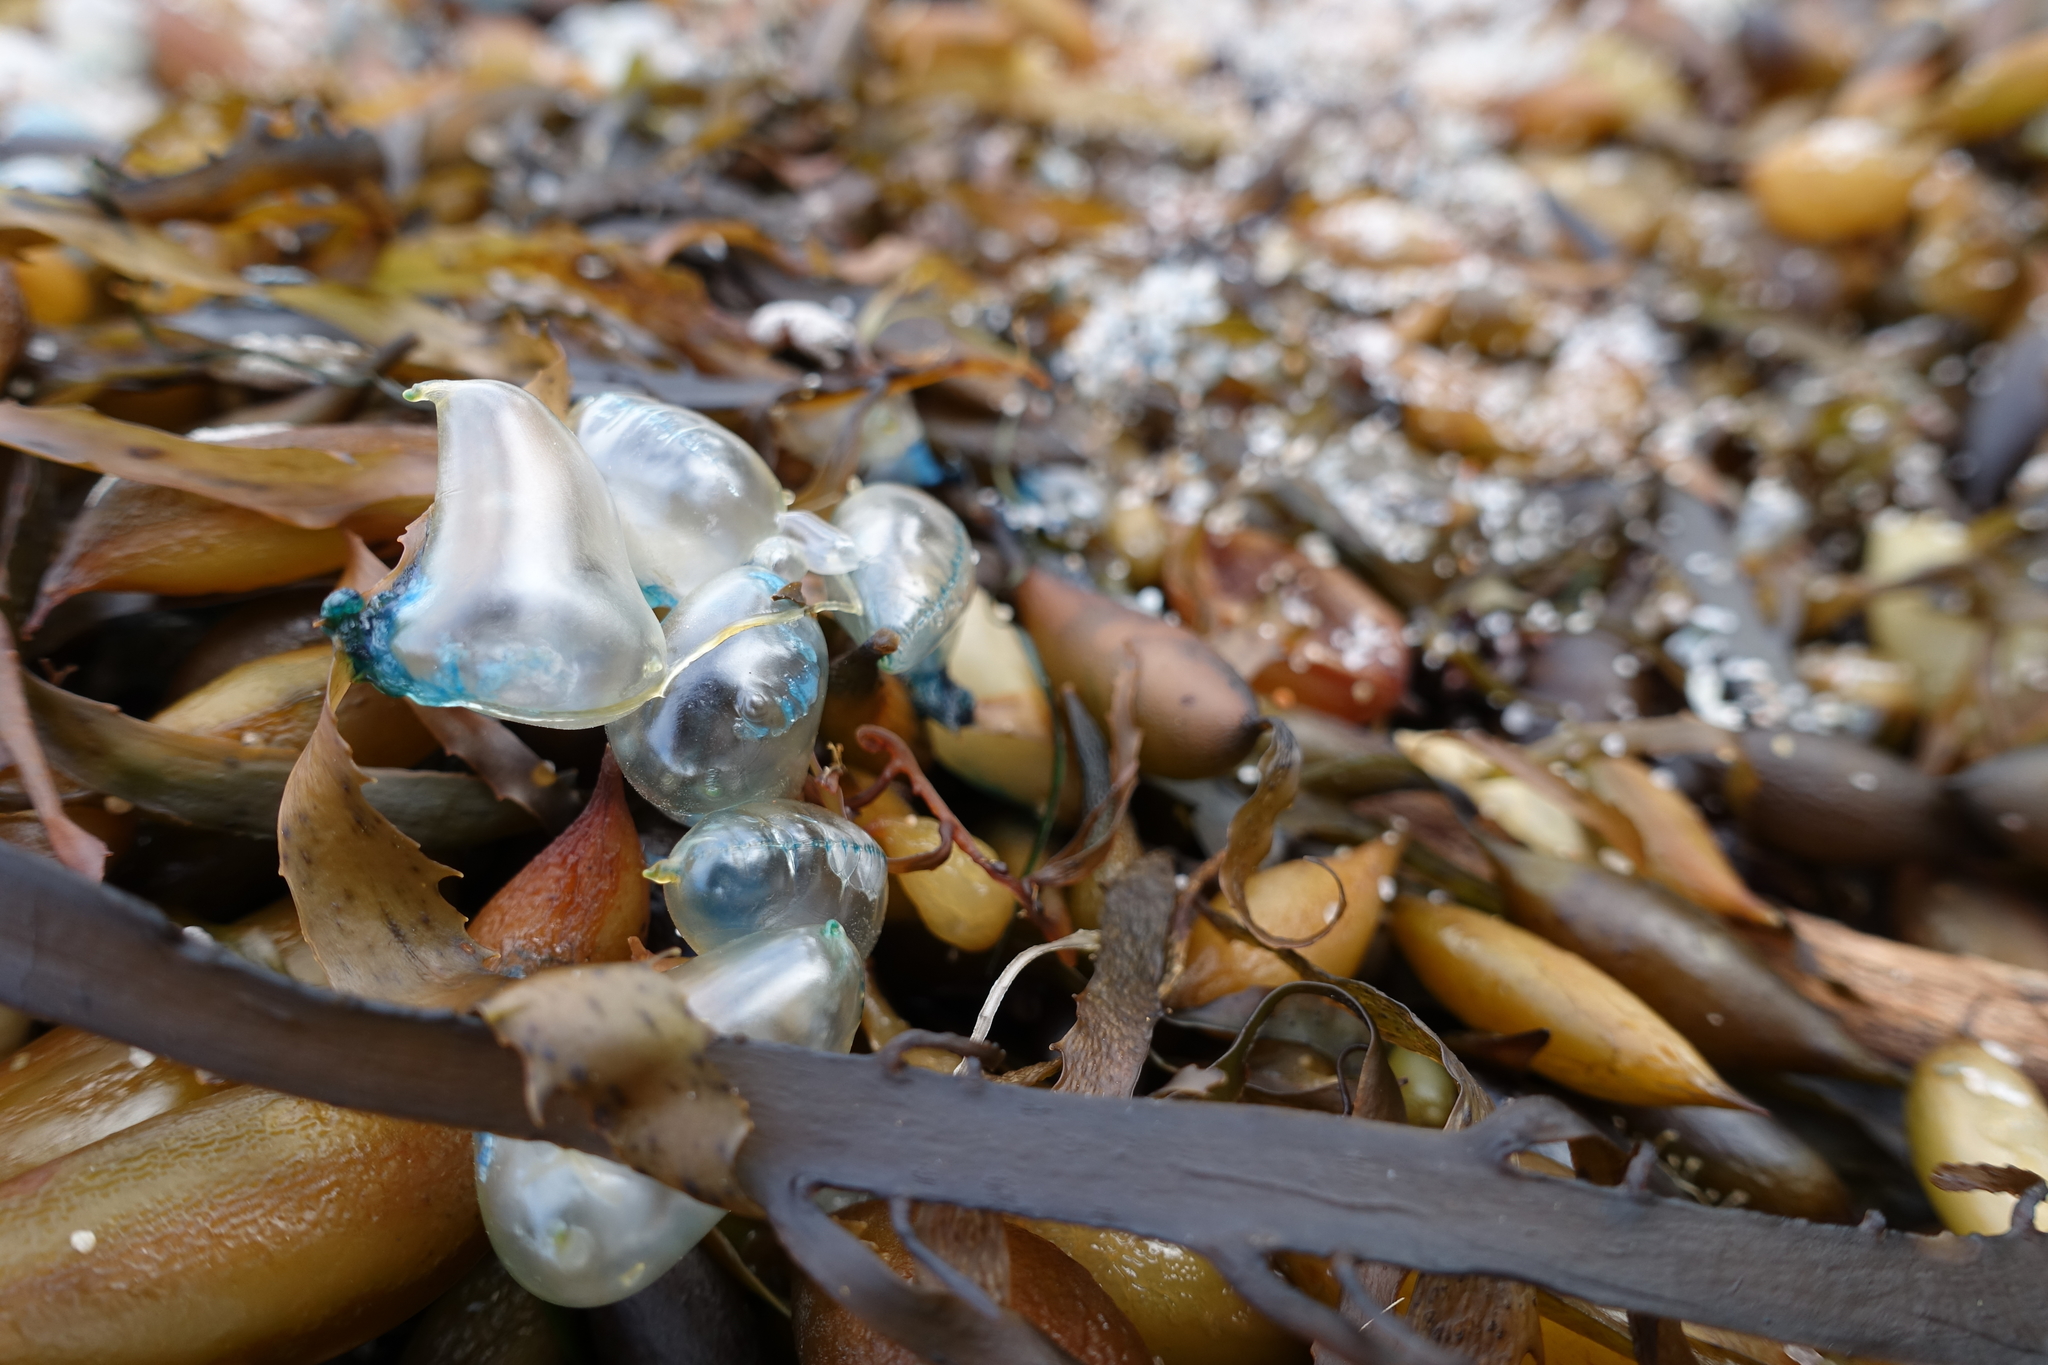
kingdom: Animalia
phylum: Cnidaria
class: Hydrozoa
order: Siphonophorae
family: Physaliidae
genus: Physalia
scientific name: Physalia physalis
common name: Portuguese man-of-war
